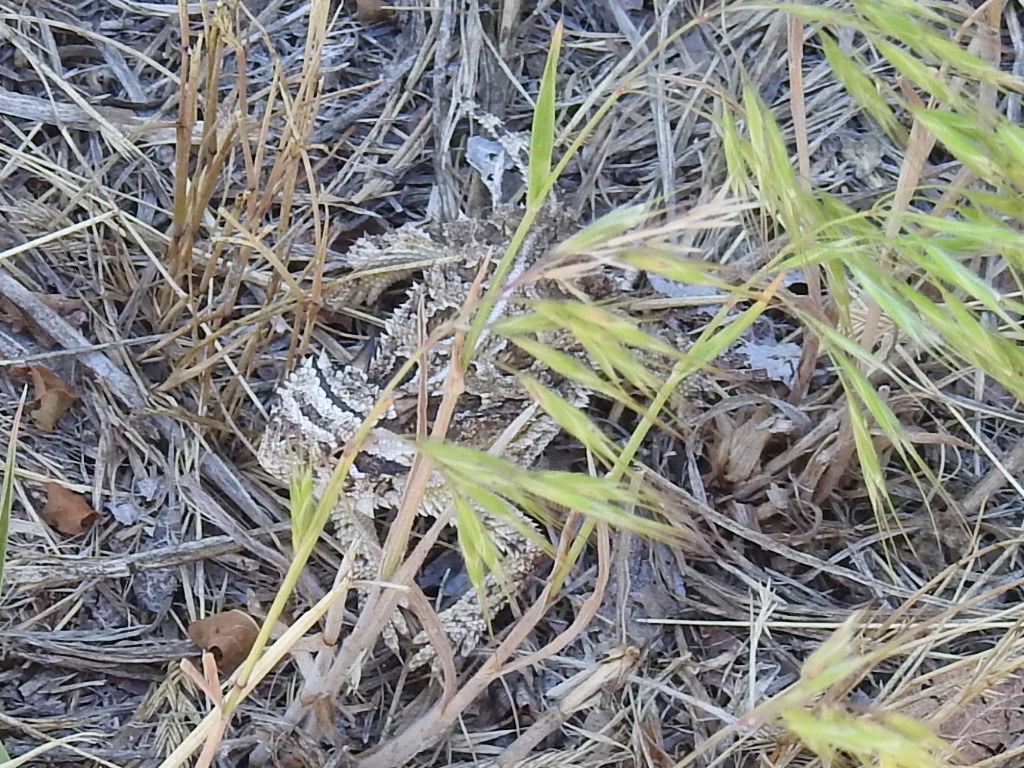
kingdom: Animalia
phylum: Chordata
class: Squamata
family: Phrynosomatidae
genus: Phrynosoma
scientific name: Phrynosoma cornutum
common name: Texas horned lizard
